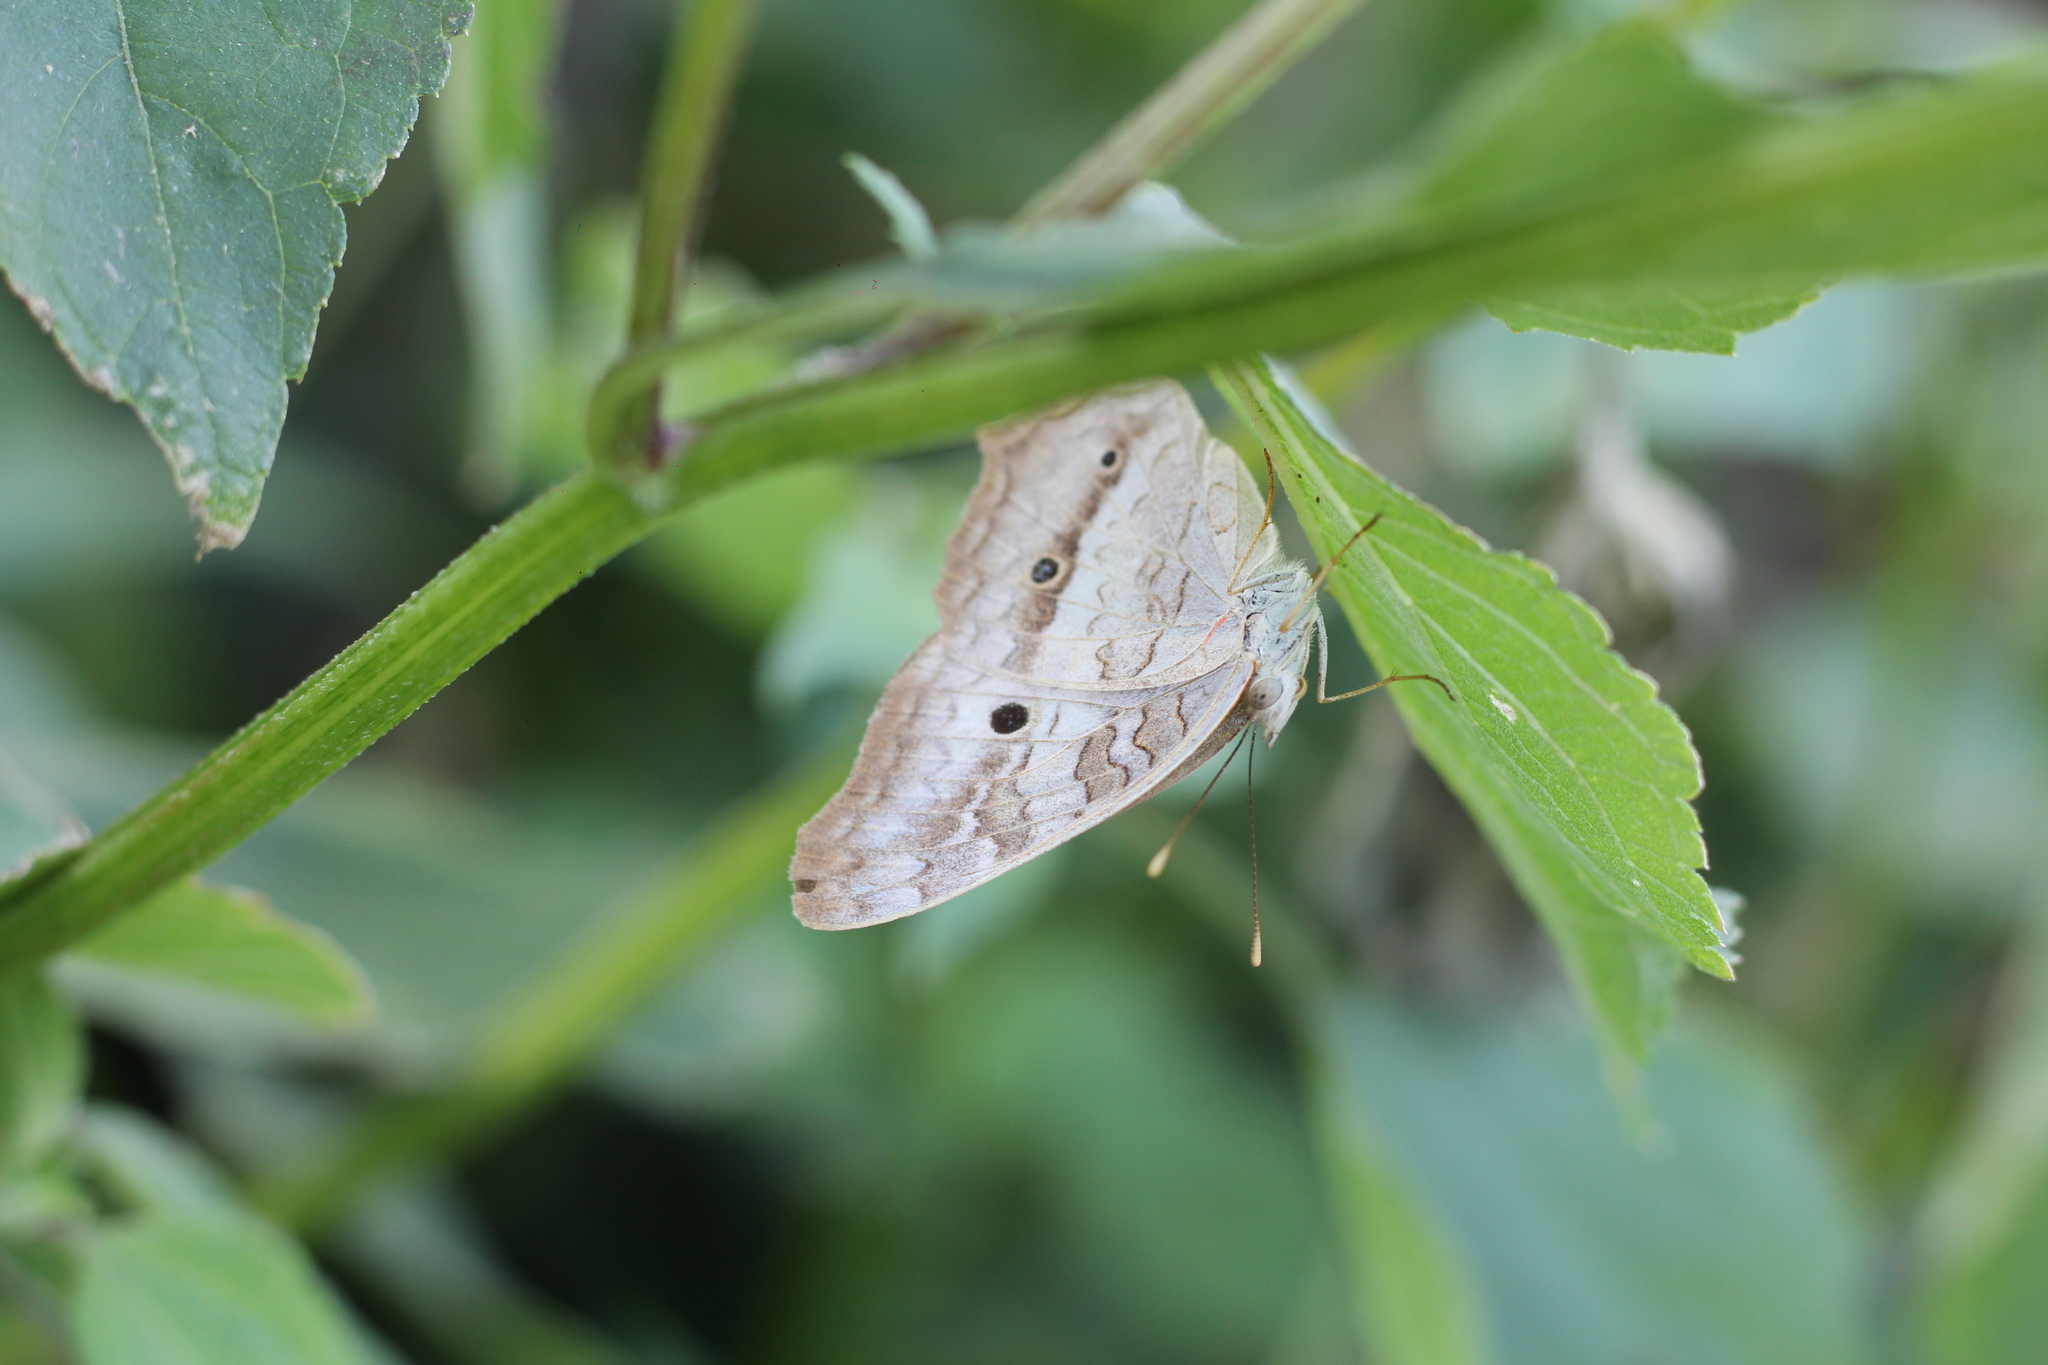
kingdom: Animalia
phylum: Arthropoda
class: Insecta
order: Lepidoptera
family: Nymphalidae
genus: Anartia
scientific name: Anartia jatrophae
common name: White peacock
